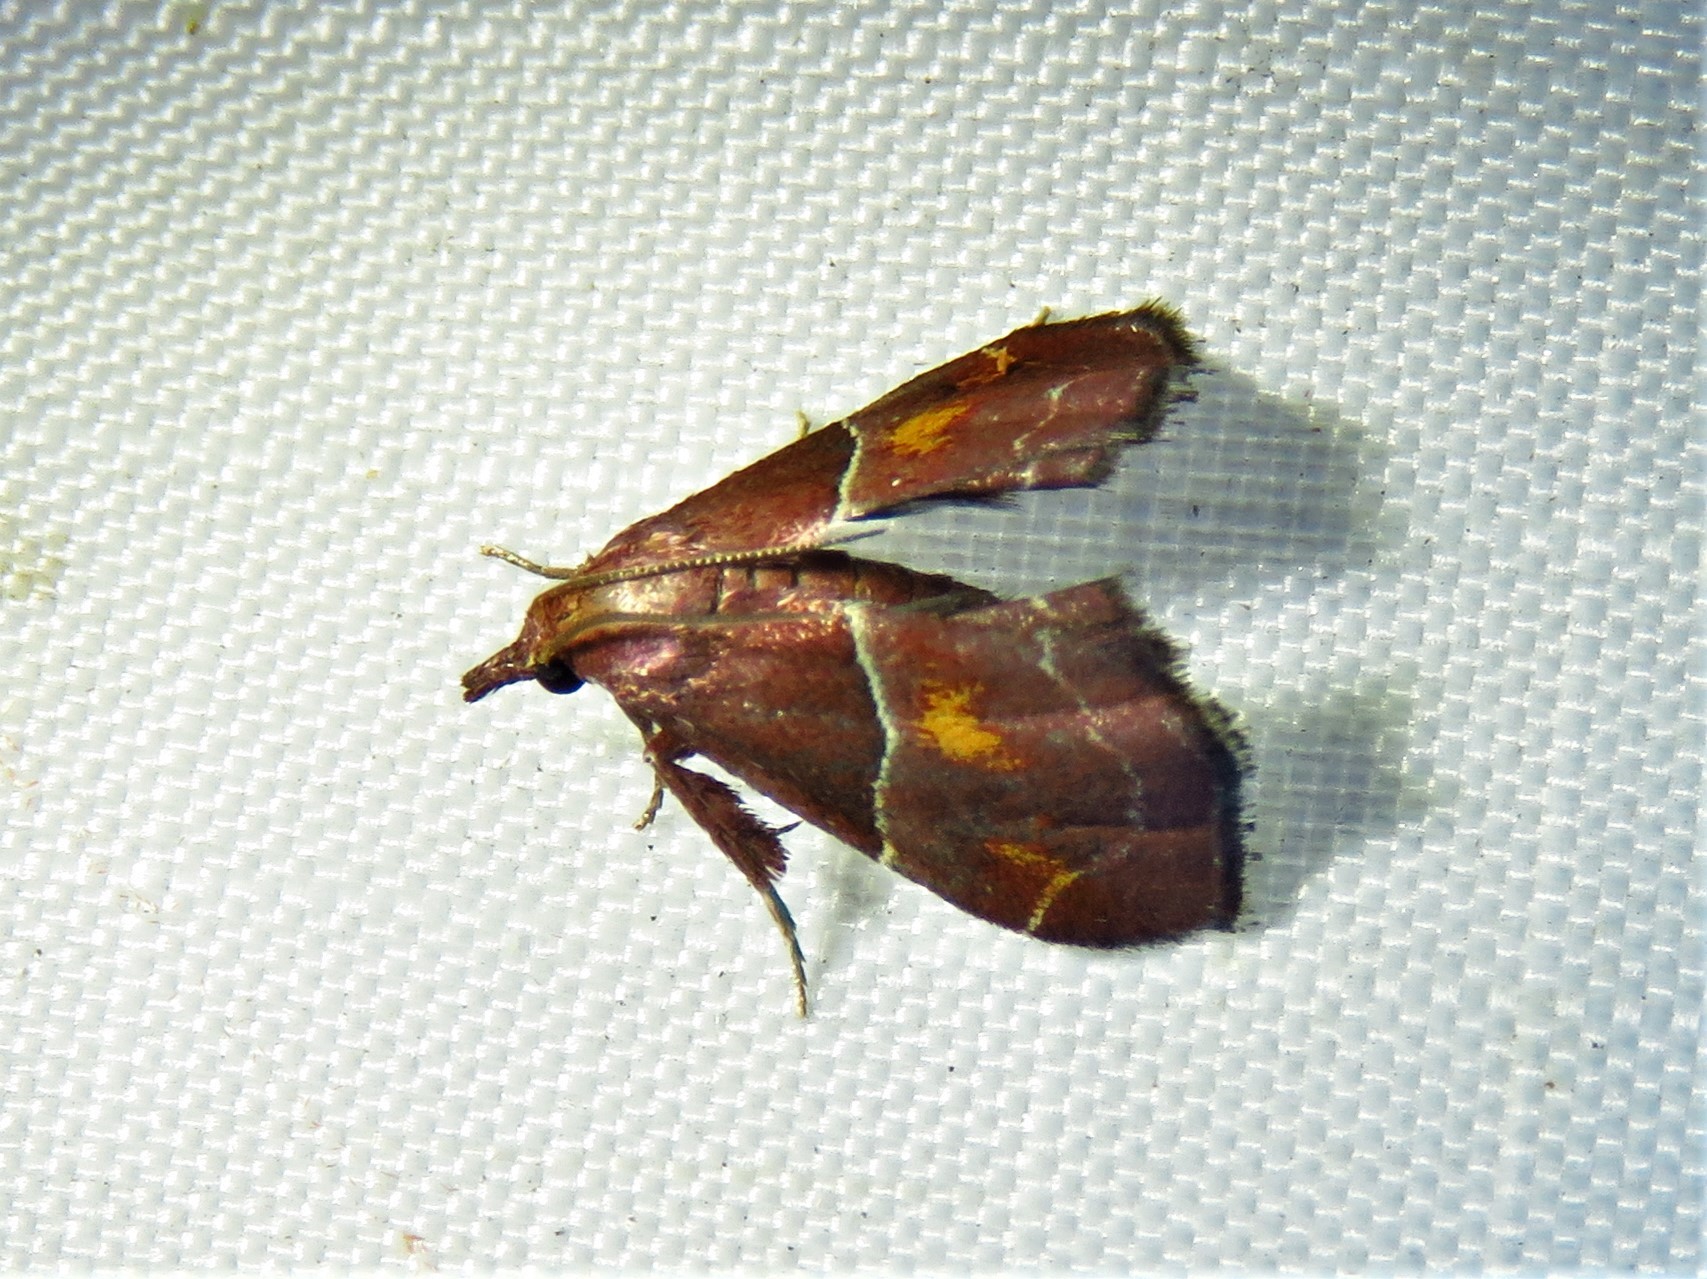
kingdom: Animalia
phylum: Arthropoda
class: Insecta
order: Lepidoptera
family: Pyralidae
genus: Penthesilea
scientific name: Penthesilea sacculalis
